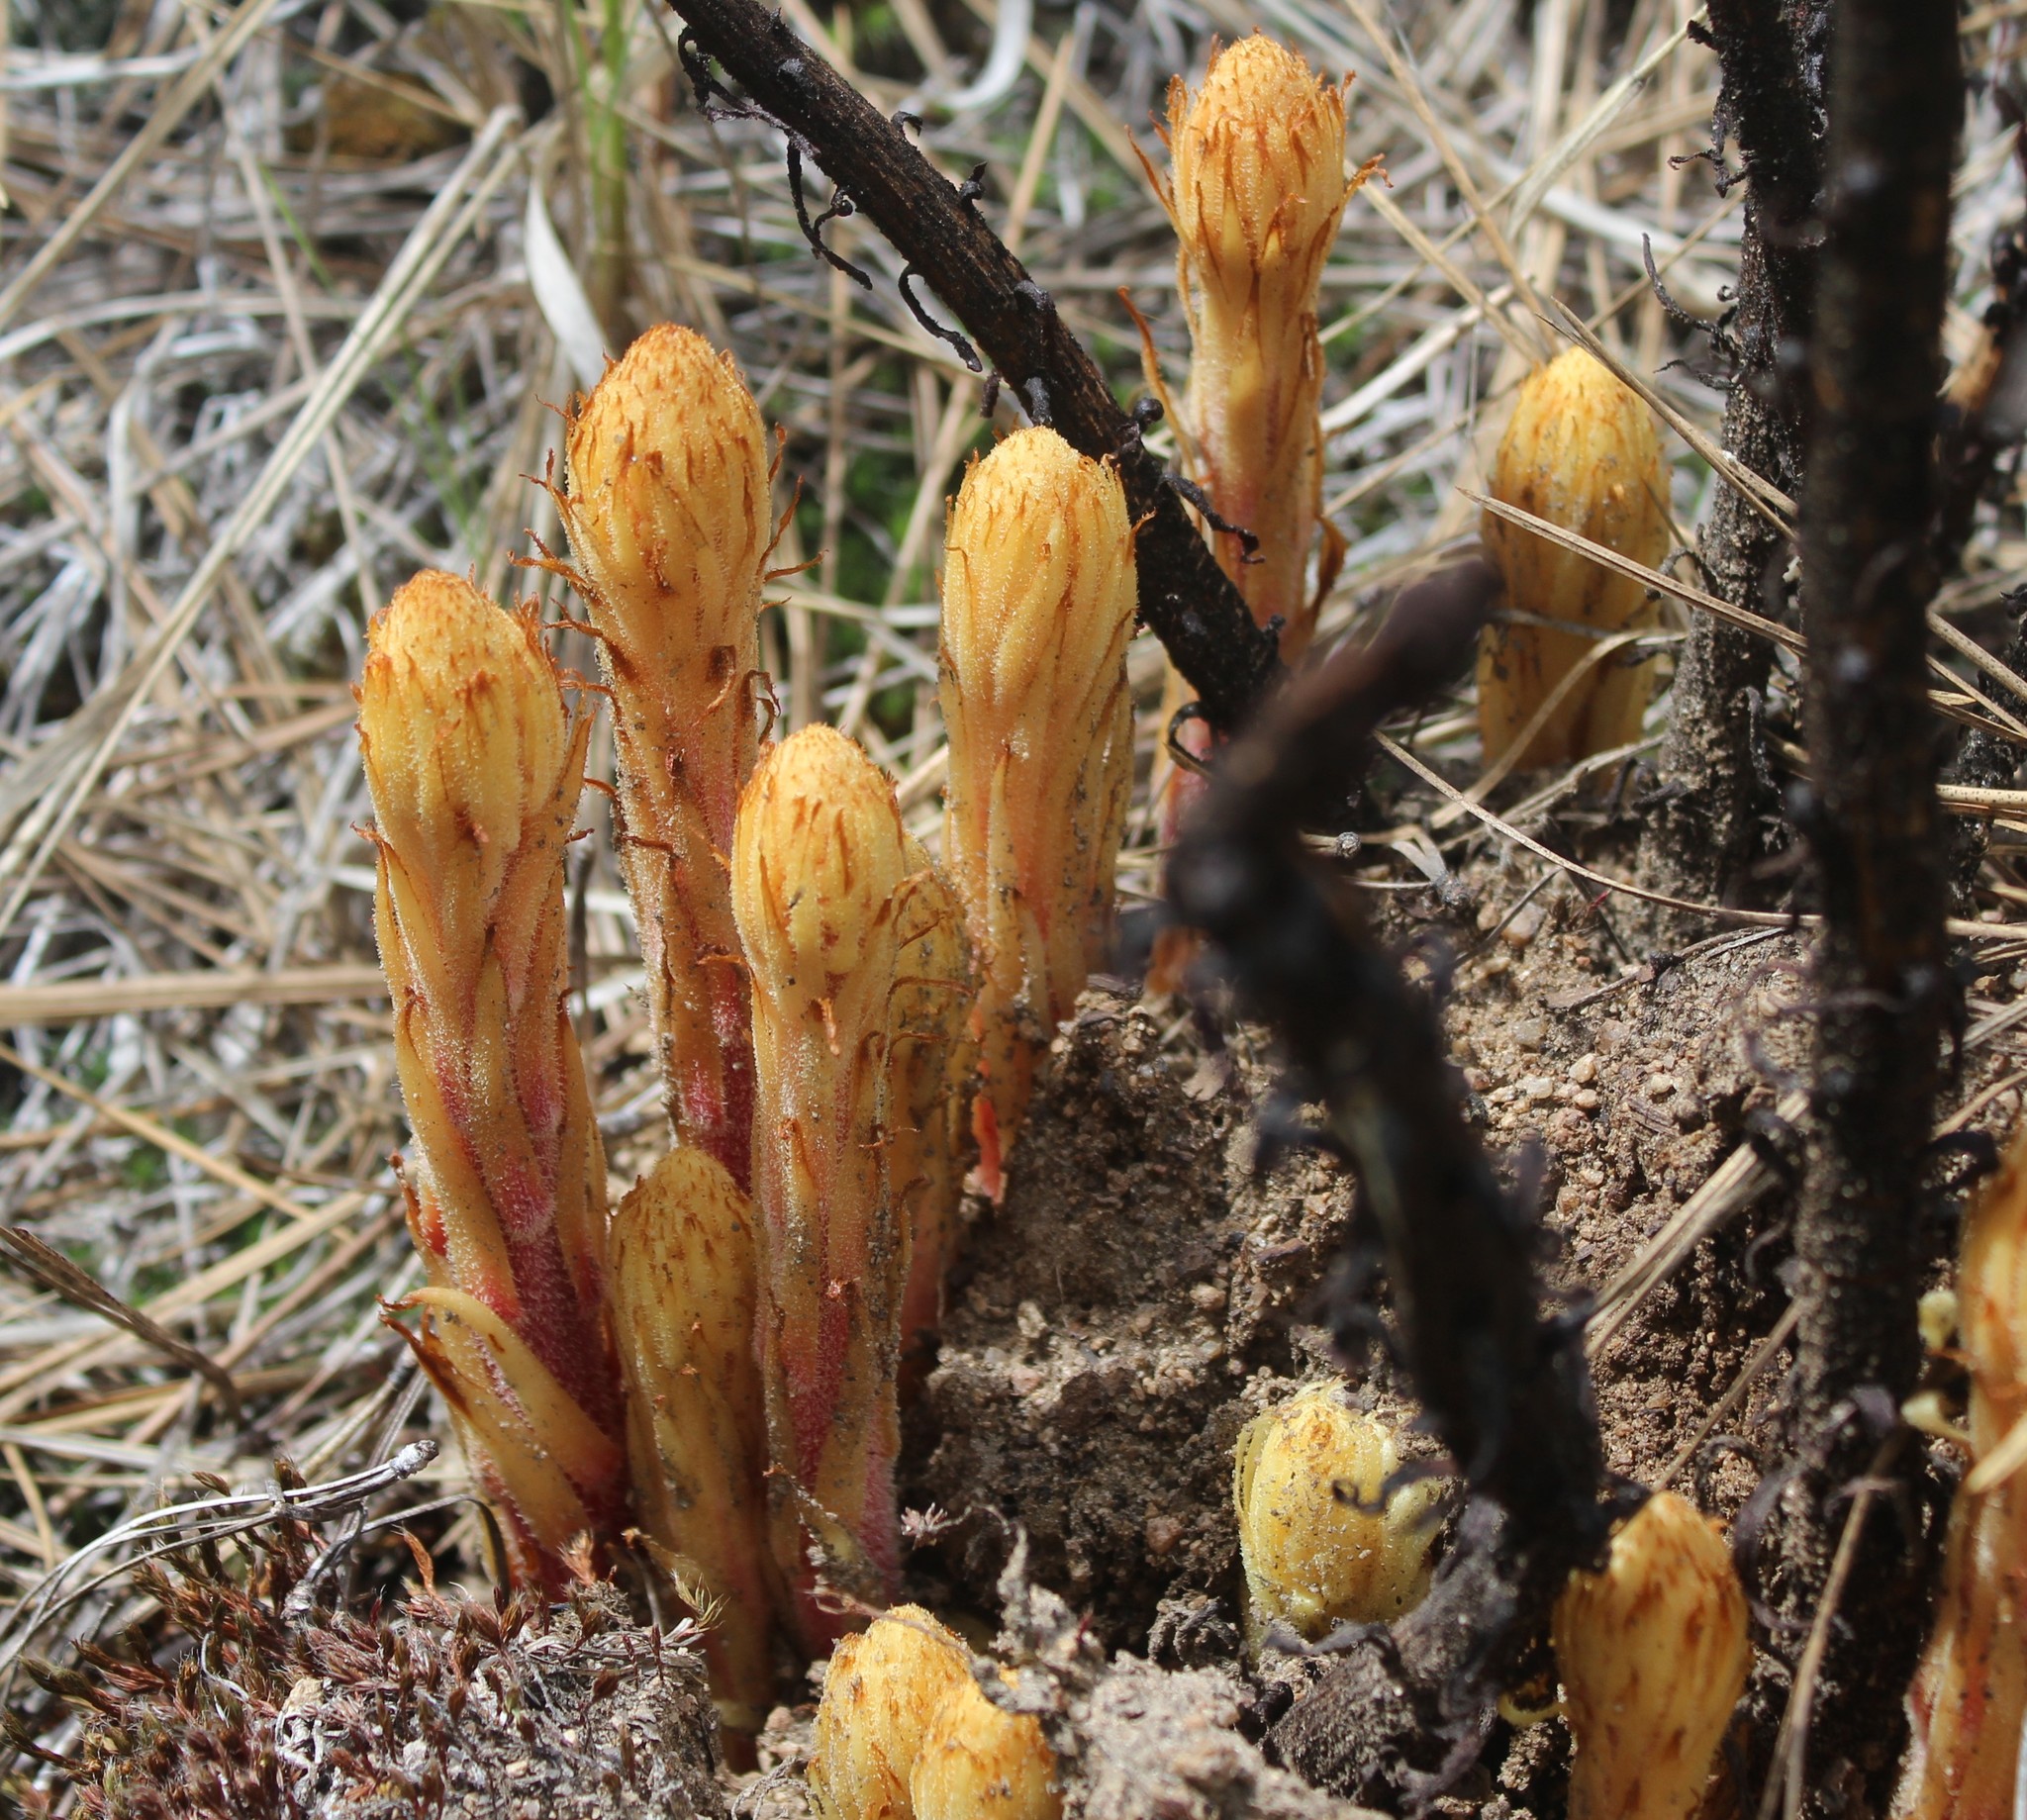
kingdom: Plantae
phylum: Tracheophyta
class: Magnoliopsida
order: Ericales
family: Ericaceae
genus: Pterospora
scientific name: Pterospora andromedea
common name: Giant bird's-nest
